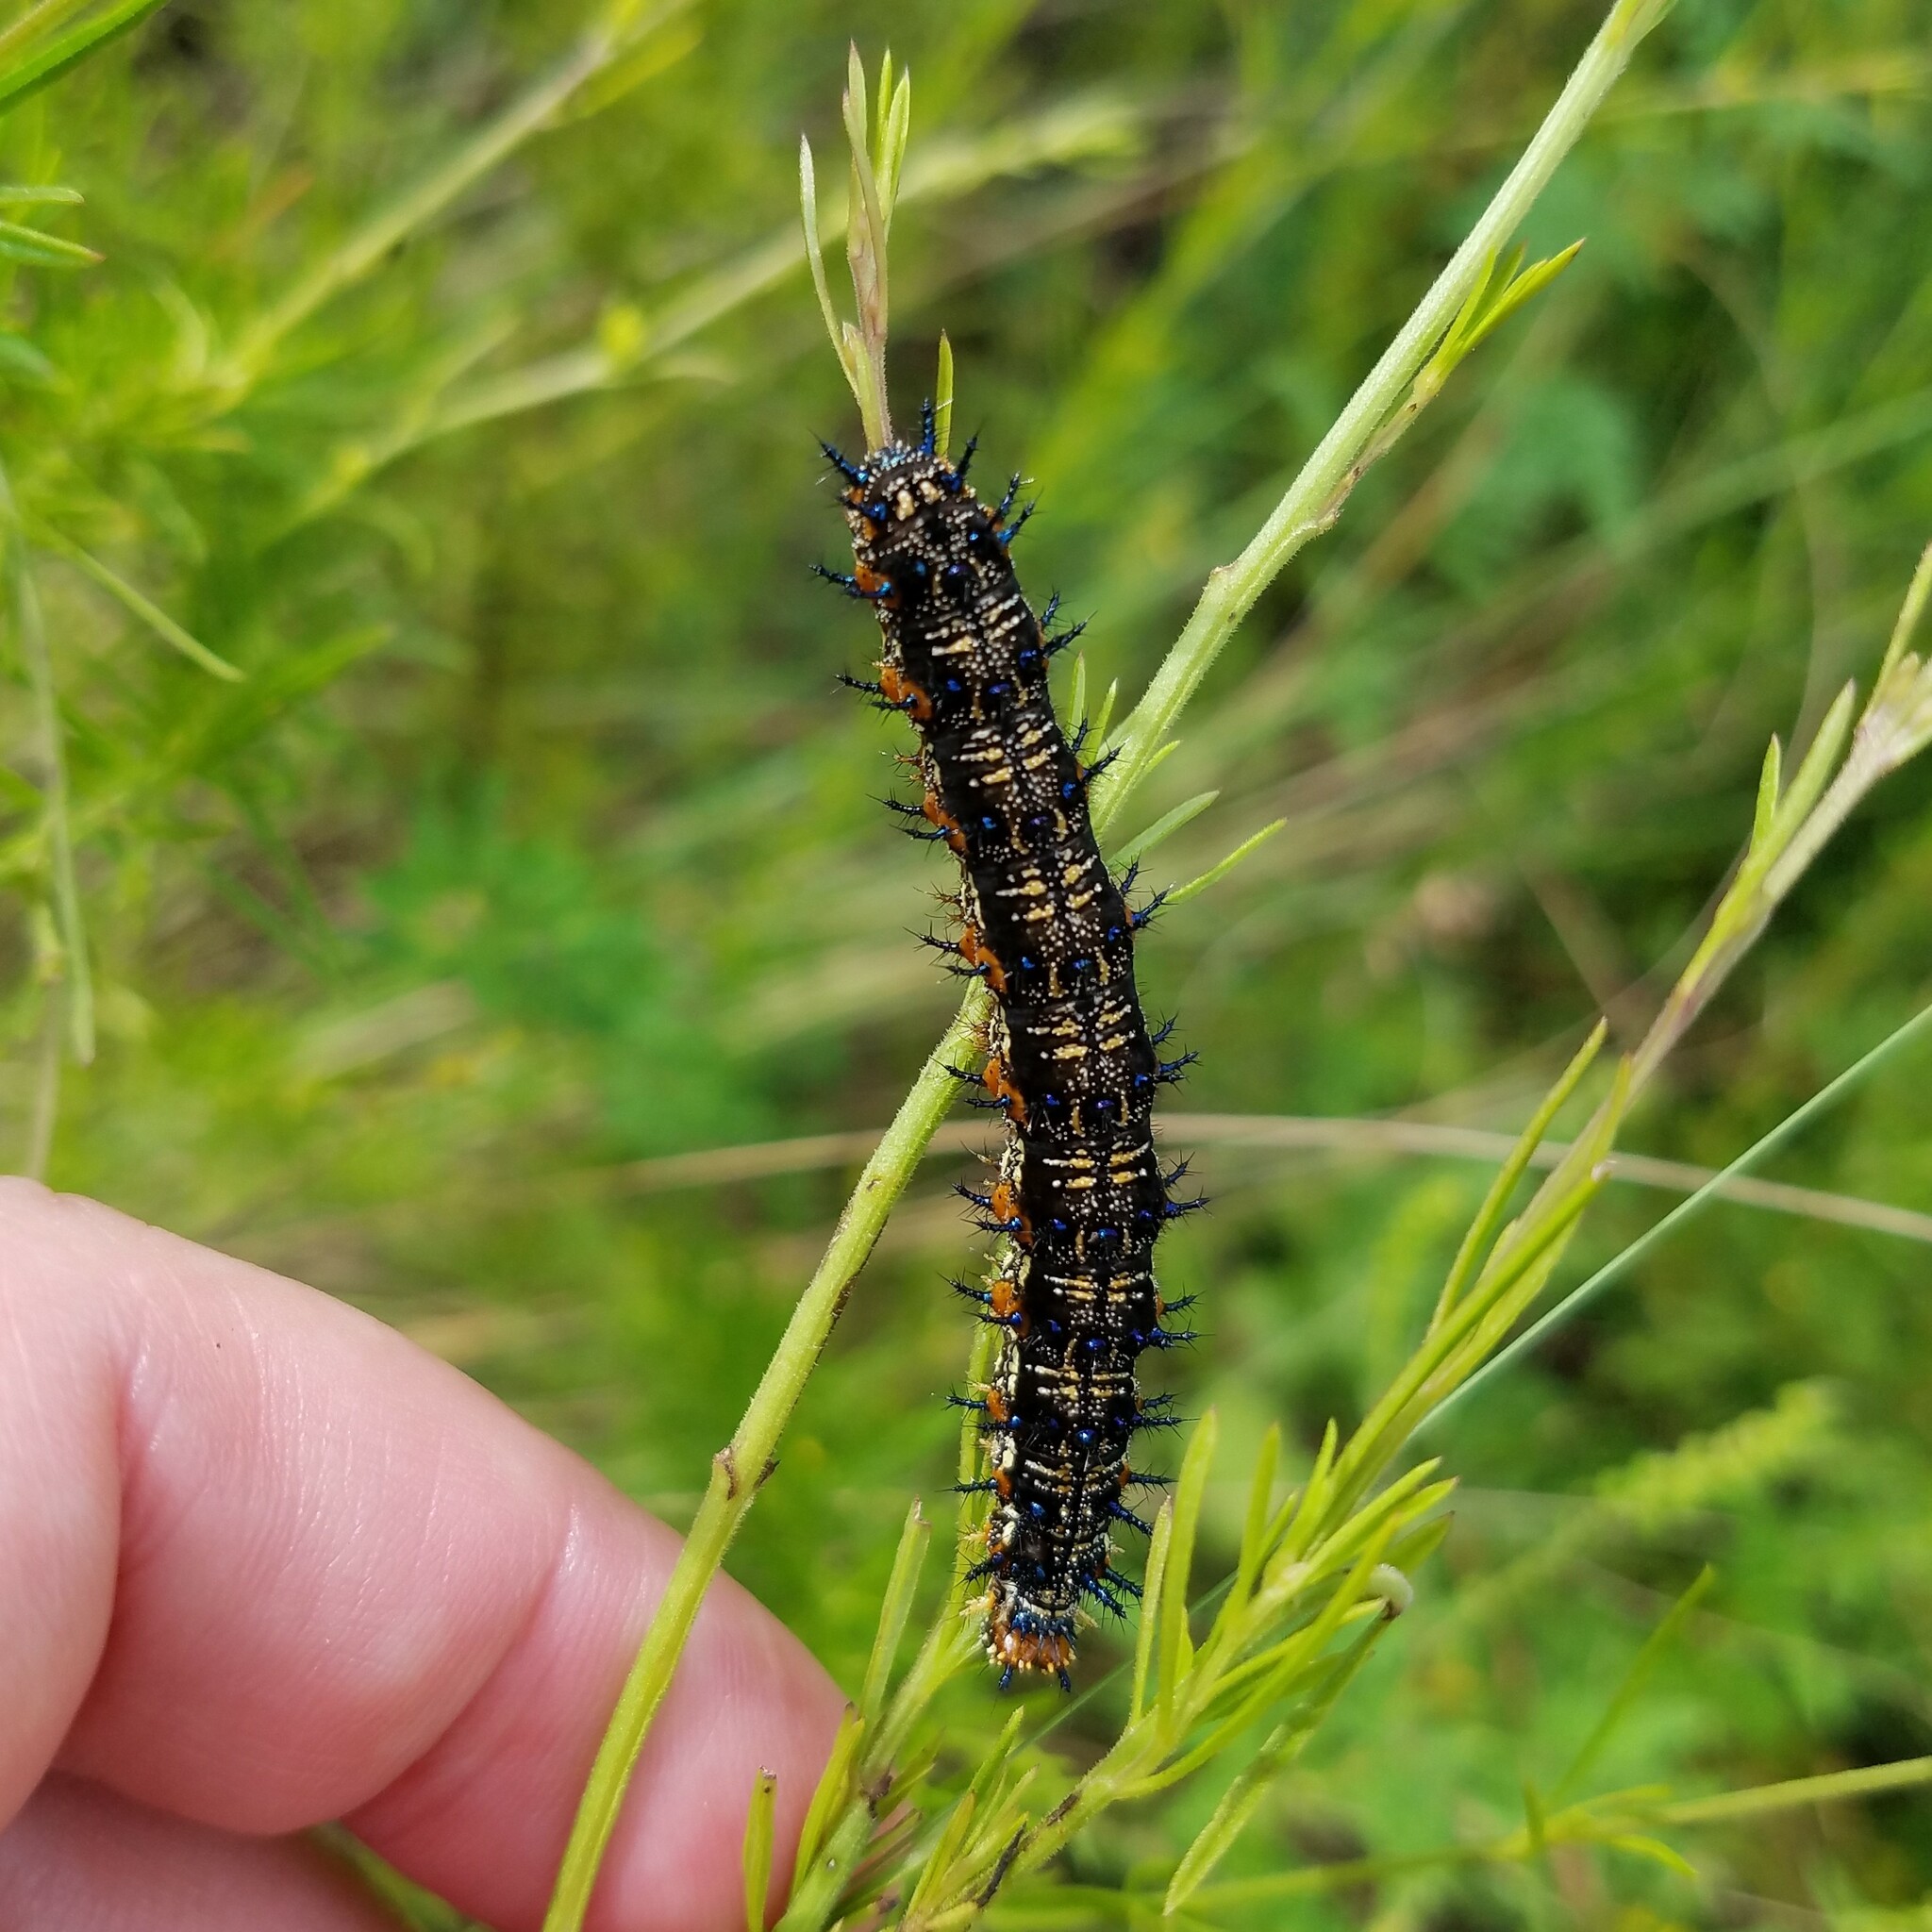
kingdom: Animalia
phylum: Arthropoda
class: Insecta
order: Lepidoptera
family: Nymphalidae
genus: Junonia
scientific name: Junonia coenia
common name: Common buckeye
